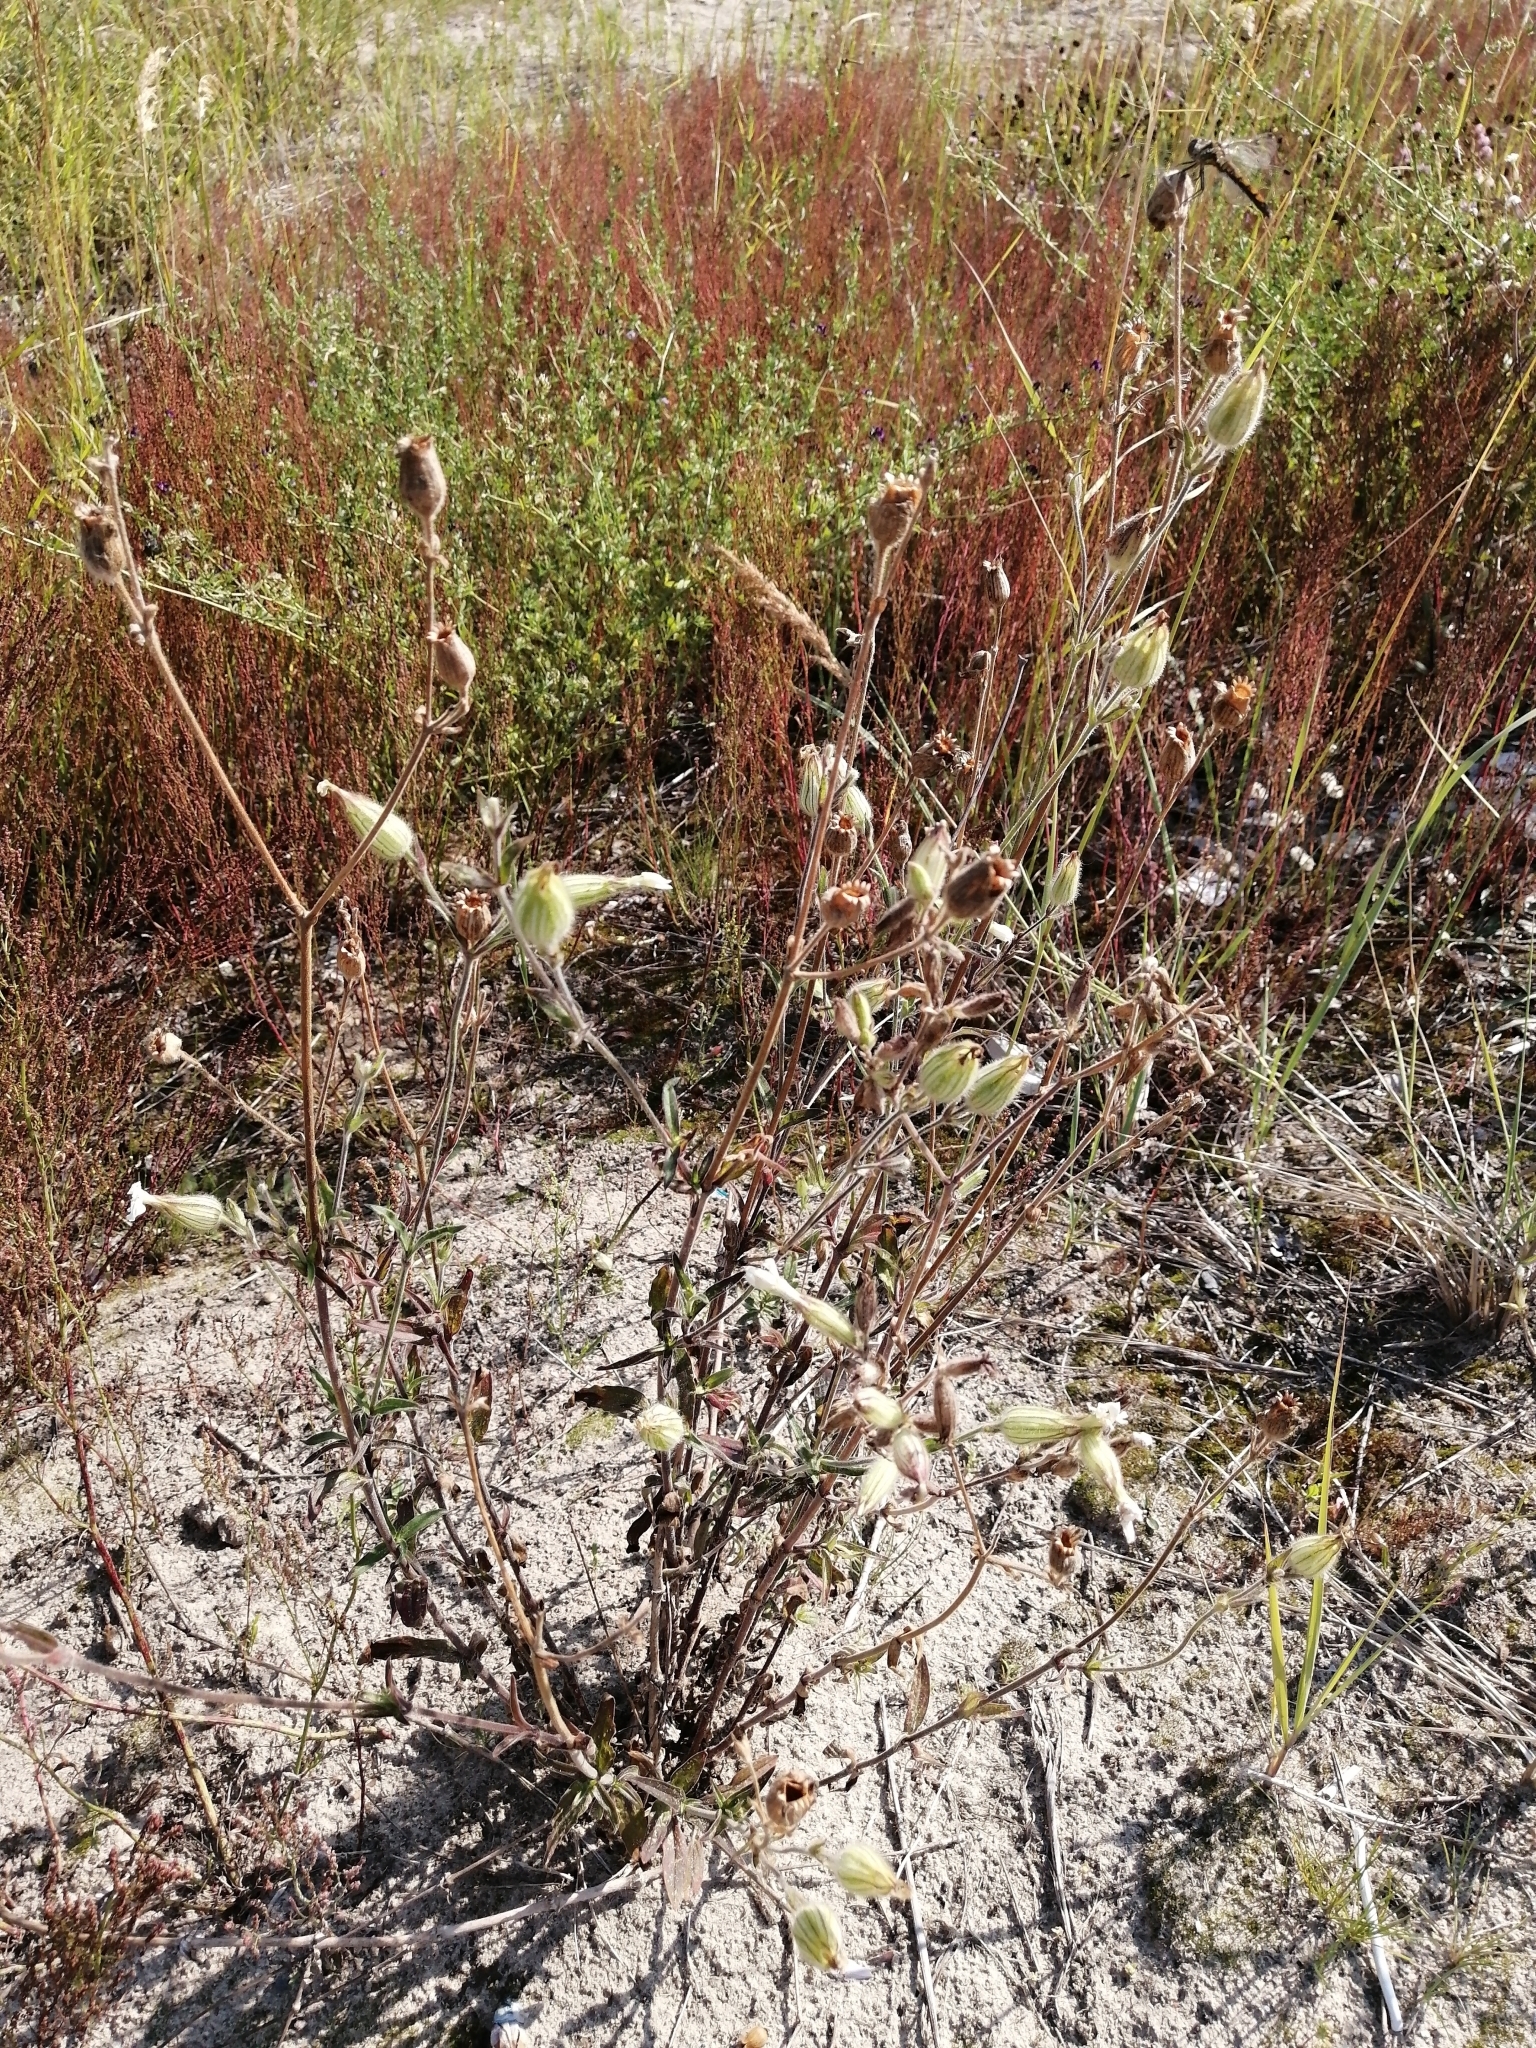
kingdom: Plantae
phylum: Tracheophyta
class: Magnoliopsida
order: Caryophyllales
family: Caryophyllaceae
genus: Silene
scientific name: Silene latifolia
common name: White campion
